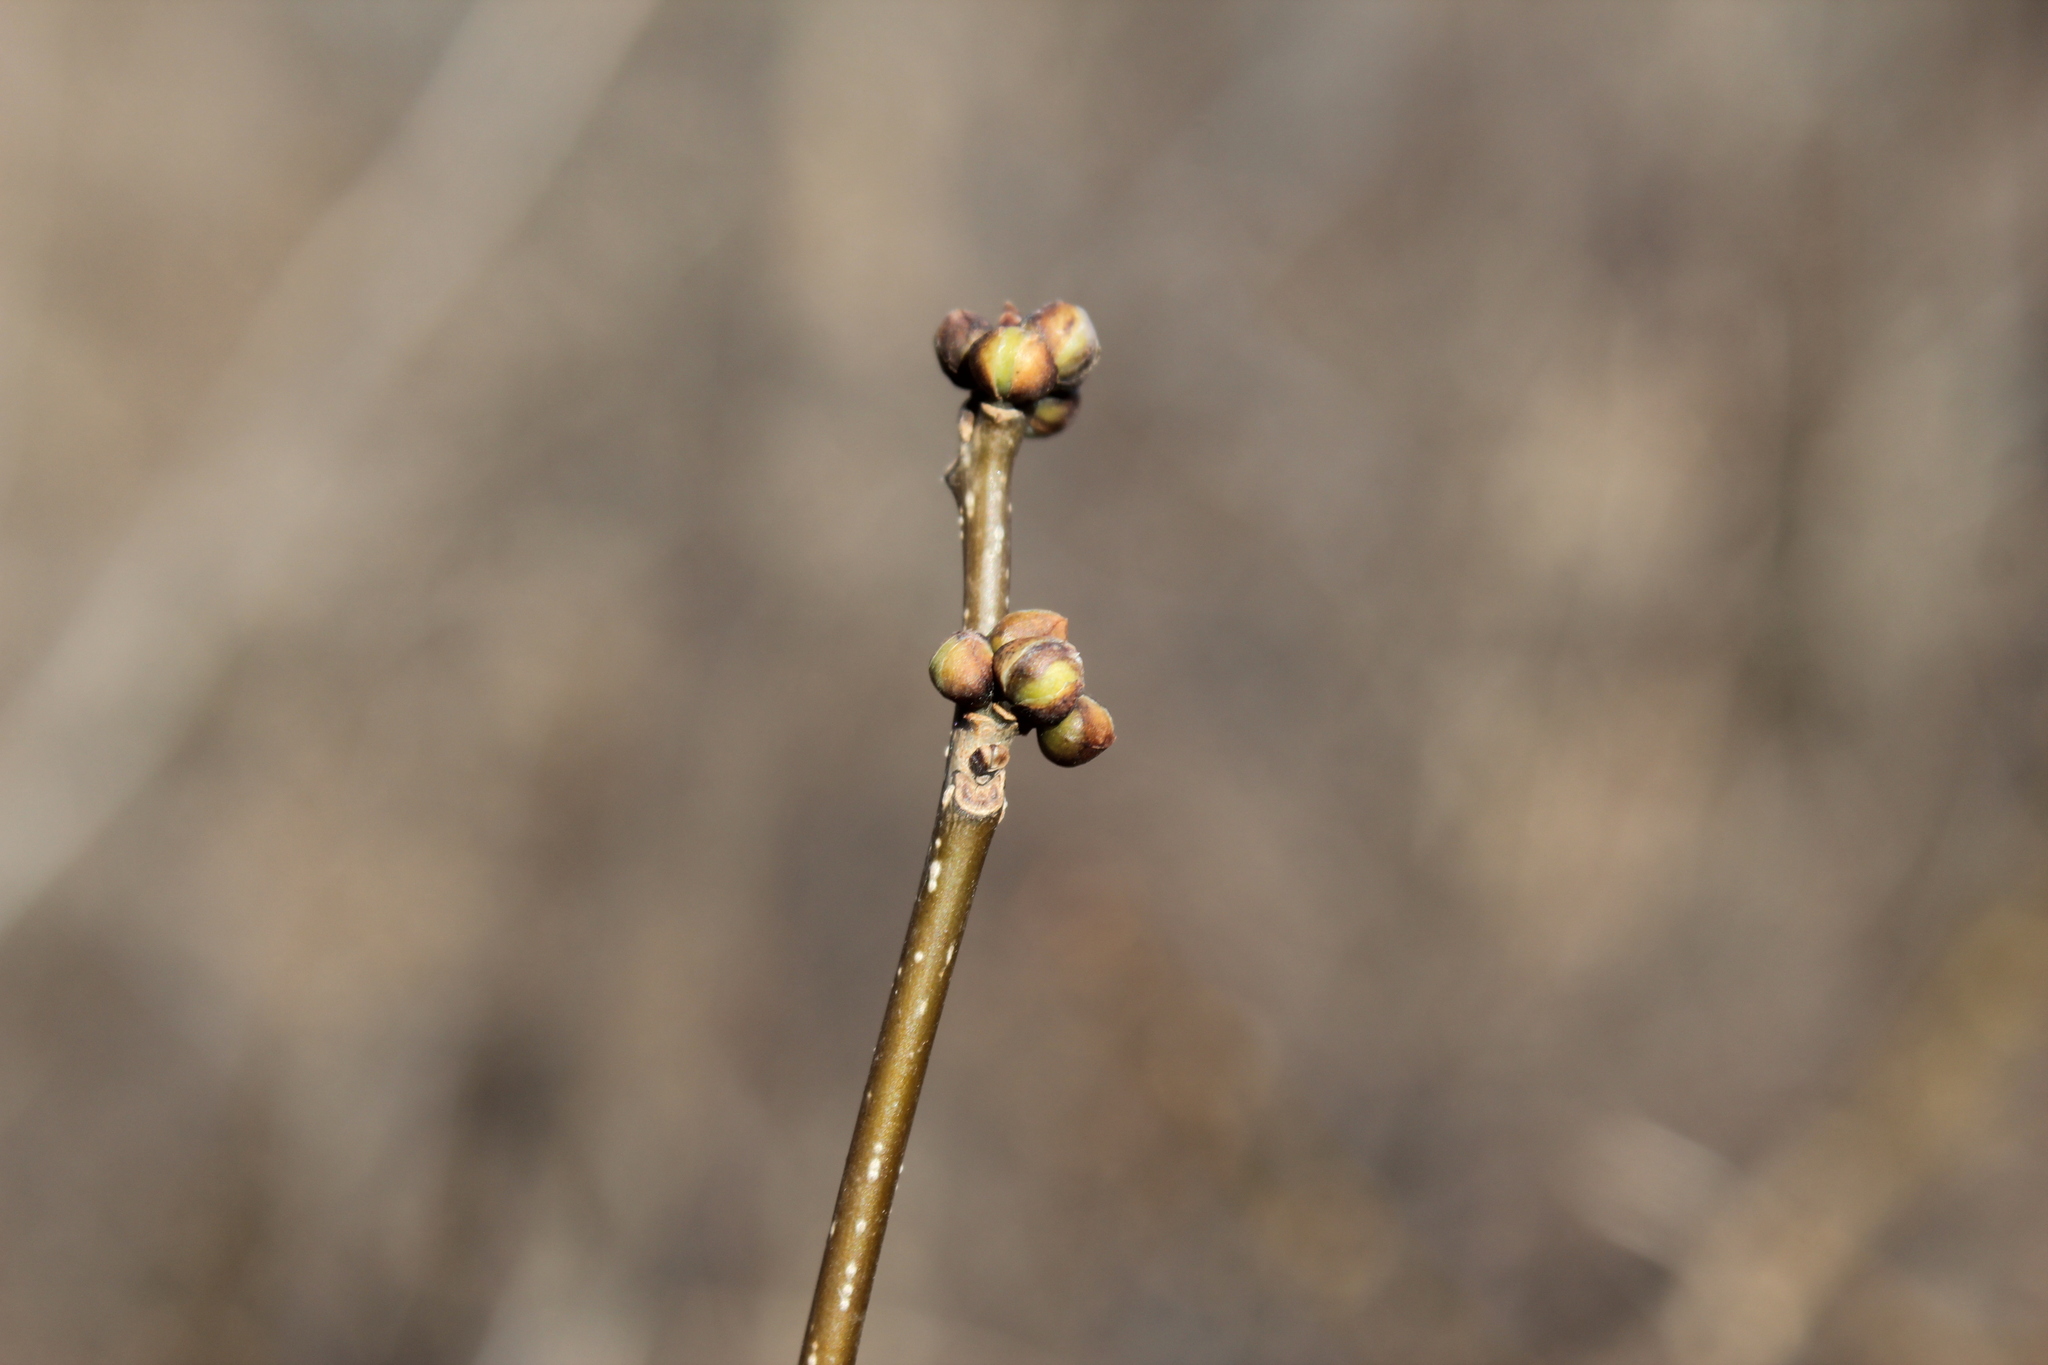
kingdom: Plantae
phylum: Tracheophyta
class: Magnoliopsida
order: Laurales
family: Lauraceae
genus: Lindera
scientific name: Lindera benzoin
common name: Spicebush
